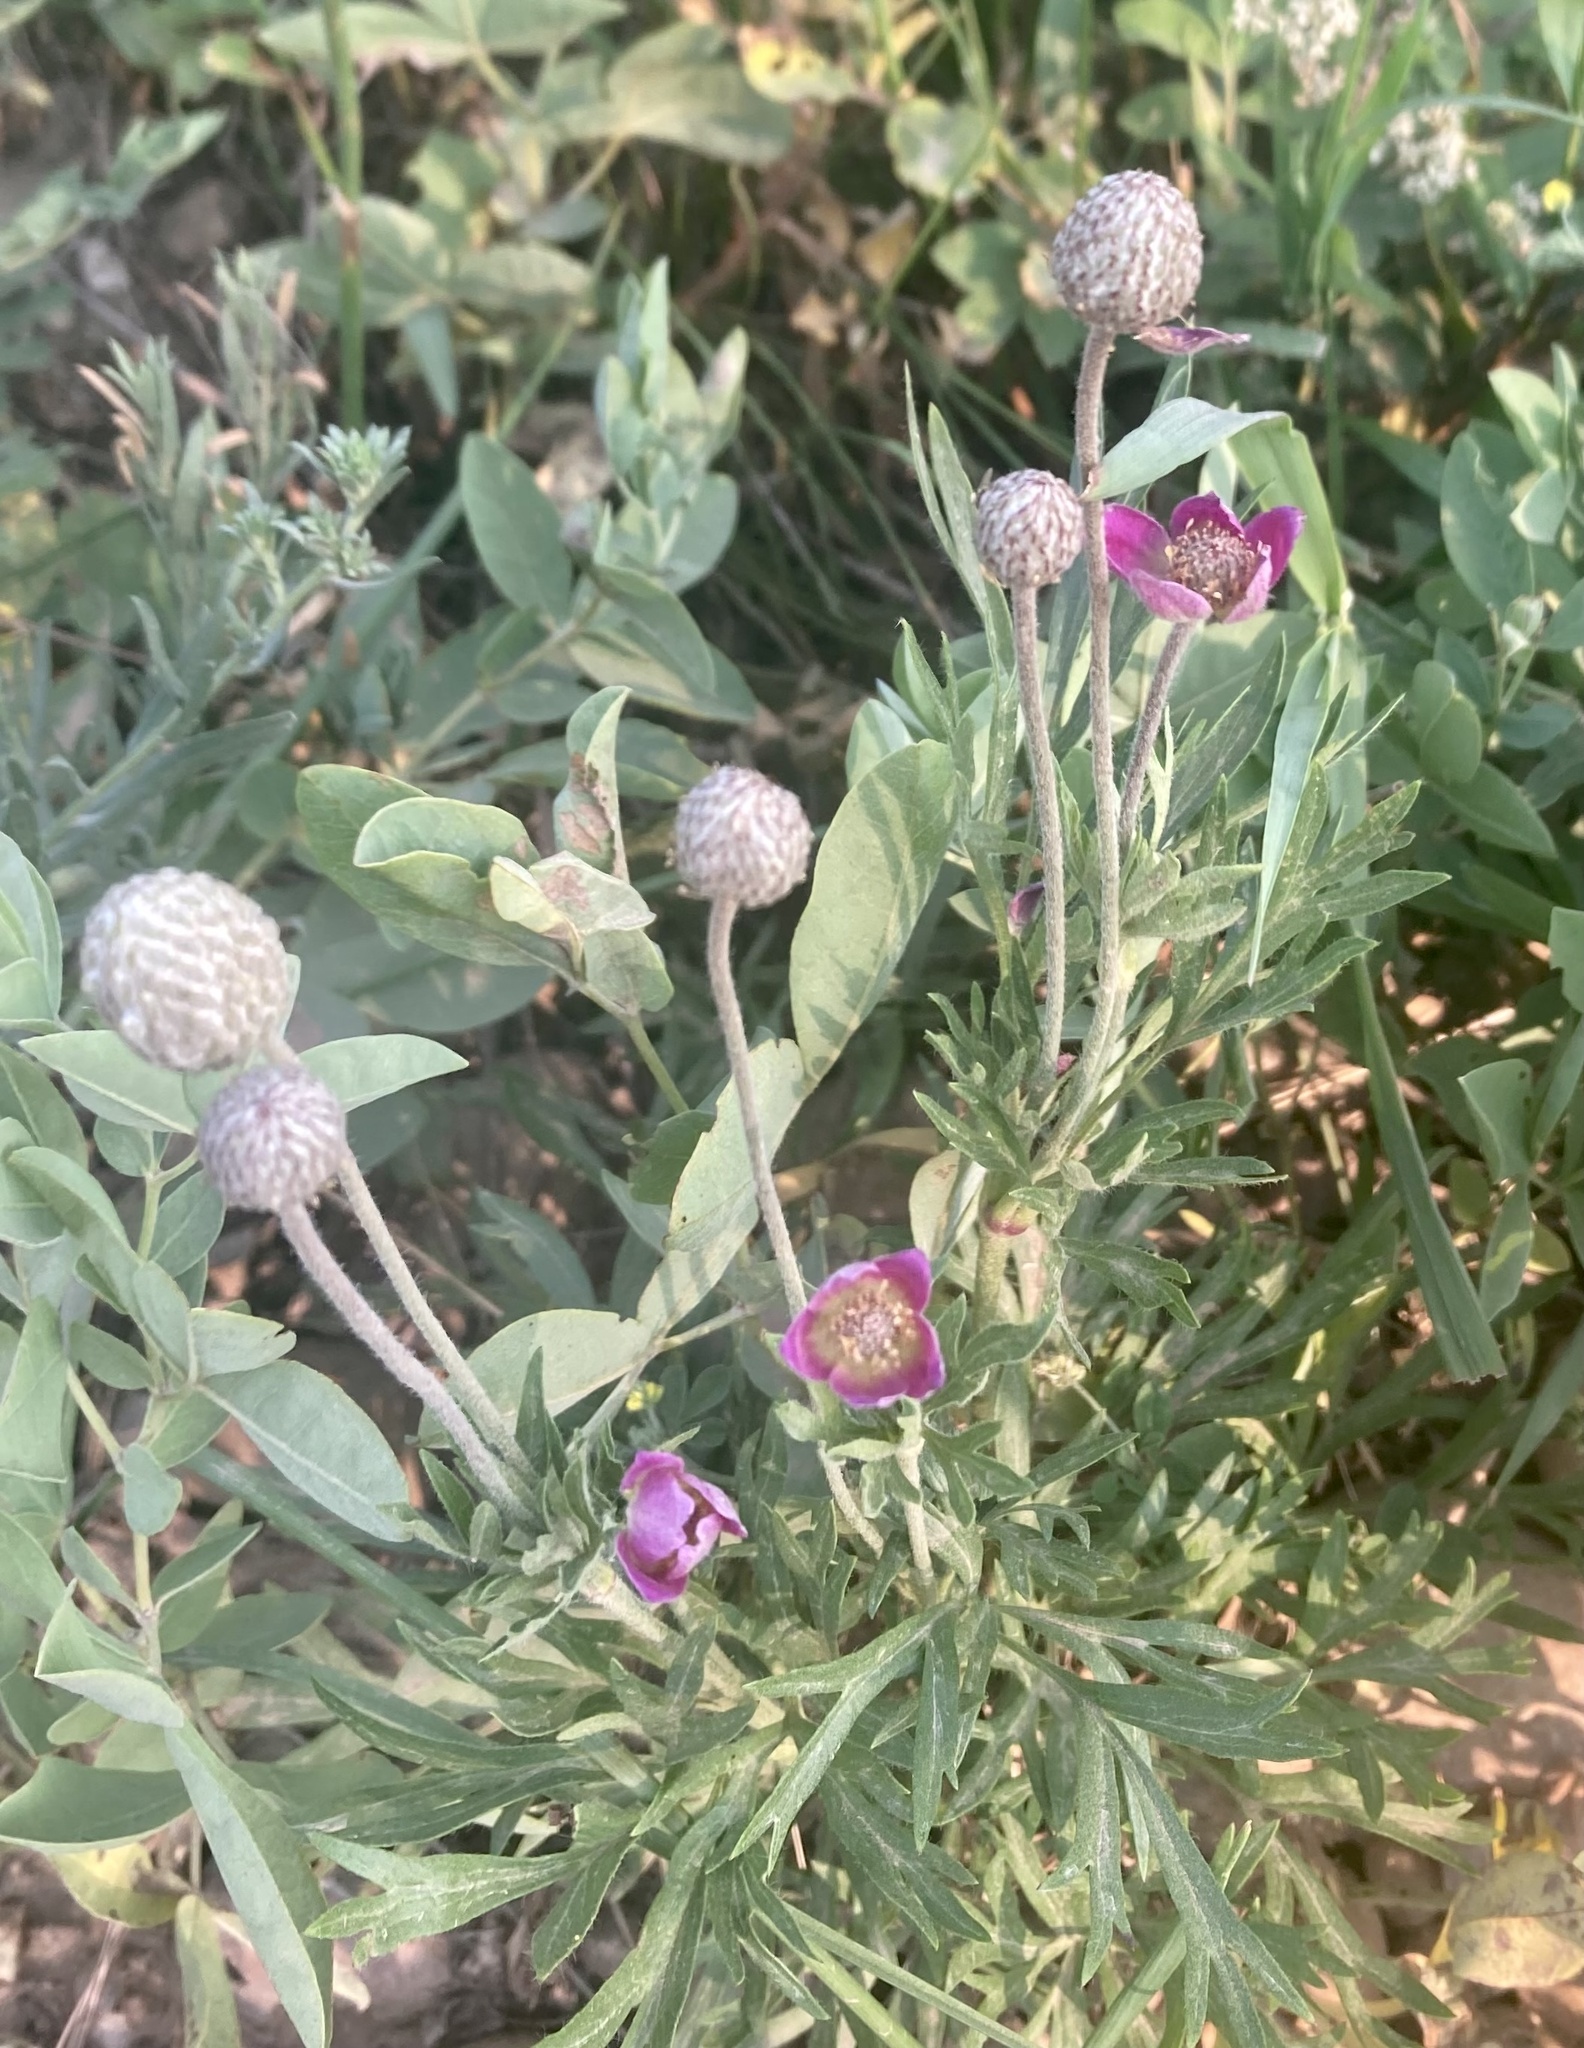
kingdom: Plantae
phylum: Tracheophyta
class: Magnoliopsida
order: Ranunculales
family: Ranunculaceae
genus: Anemone
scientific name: Anemone multifida
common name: Bird's-foot anemone
